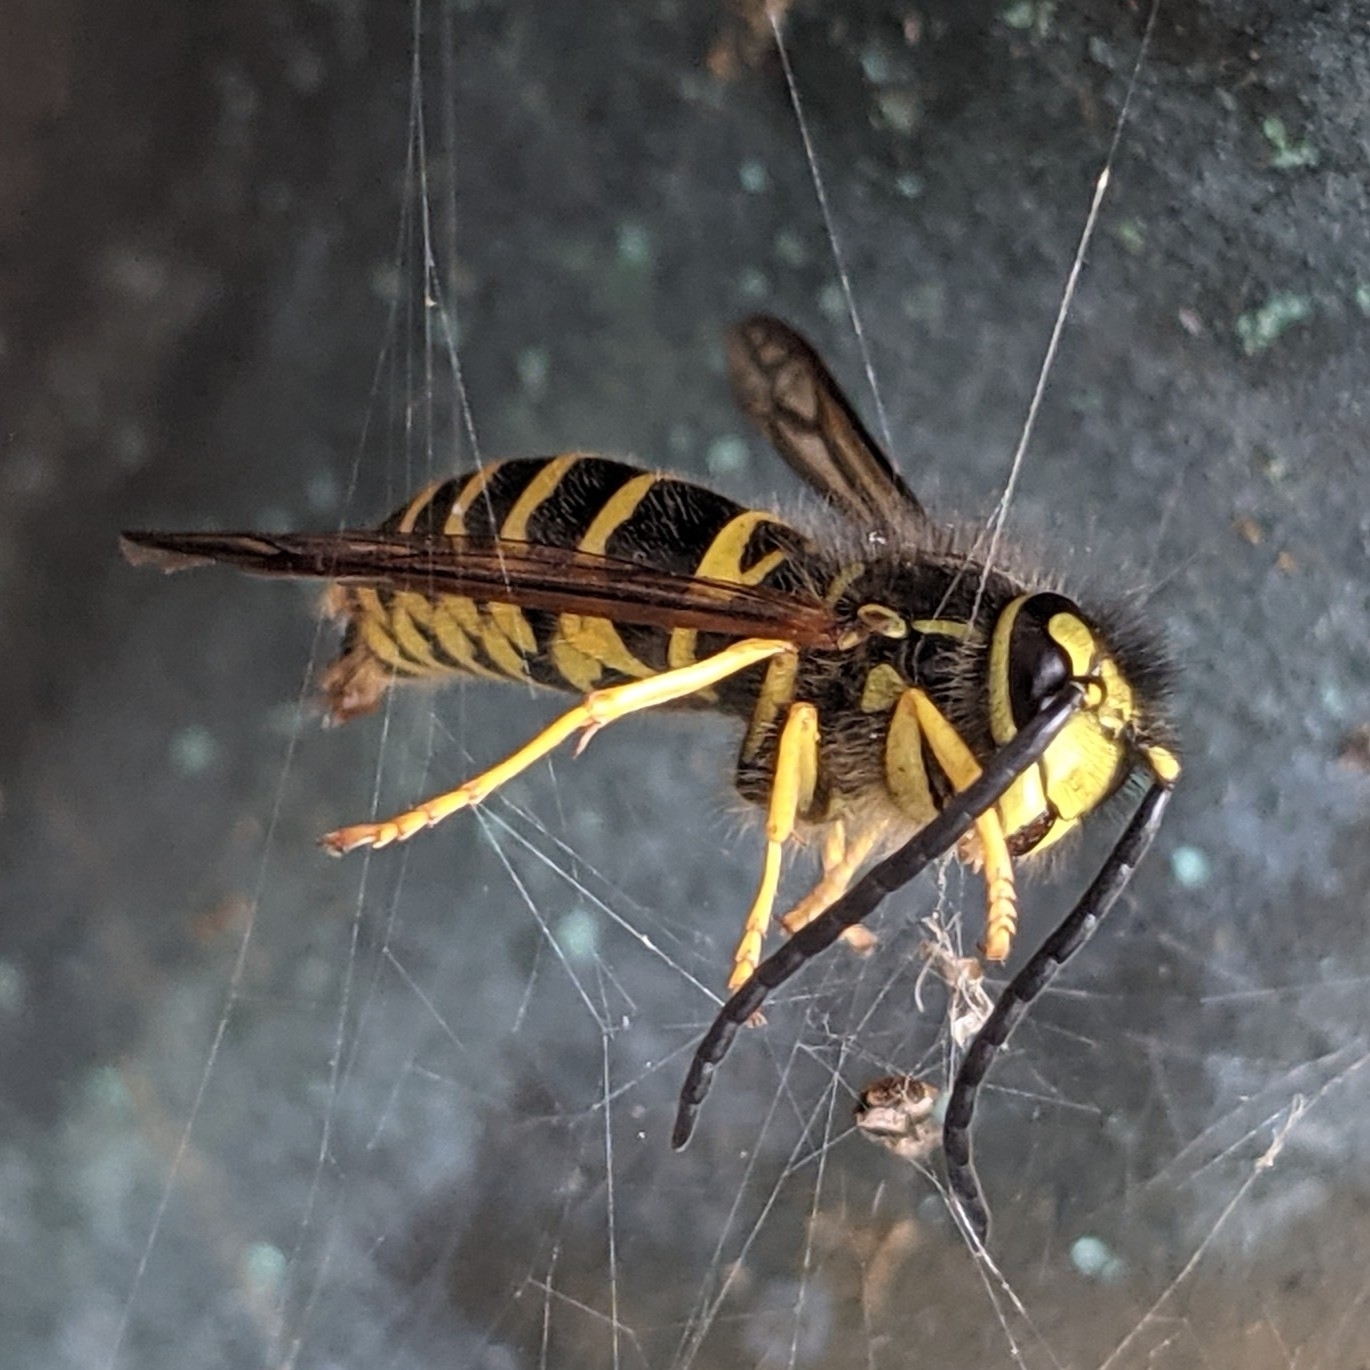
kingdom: Animalia
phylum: Arthropoda
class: Insecta
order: Hymenoptera
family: Vespidae
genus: Vespula
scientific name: Vespula maculifrons
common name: Eastern yellowjacket
